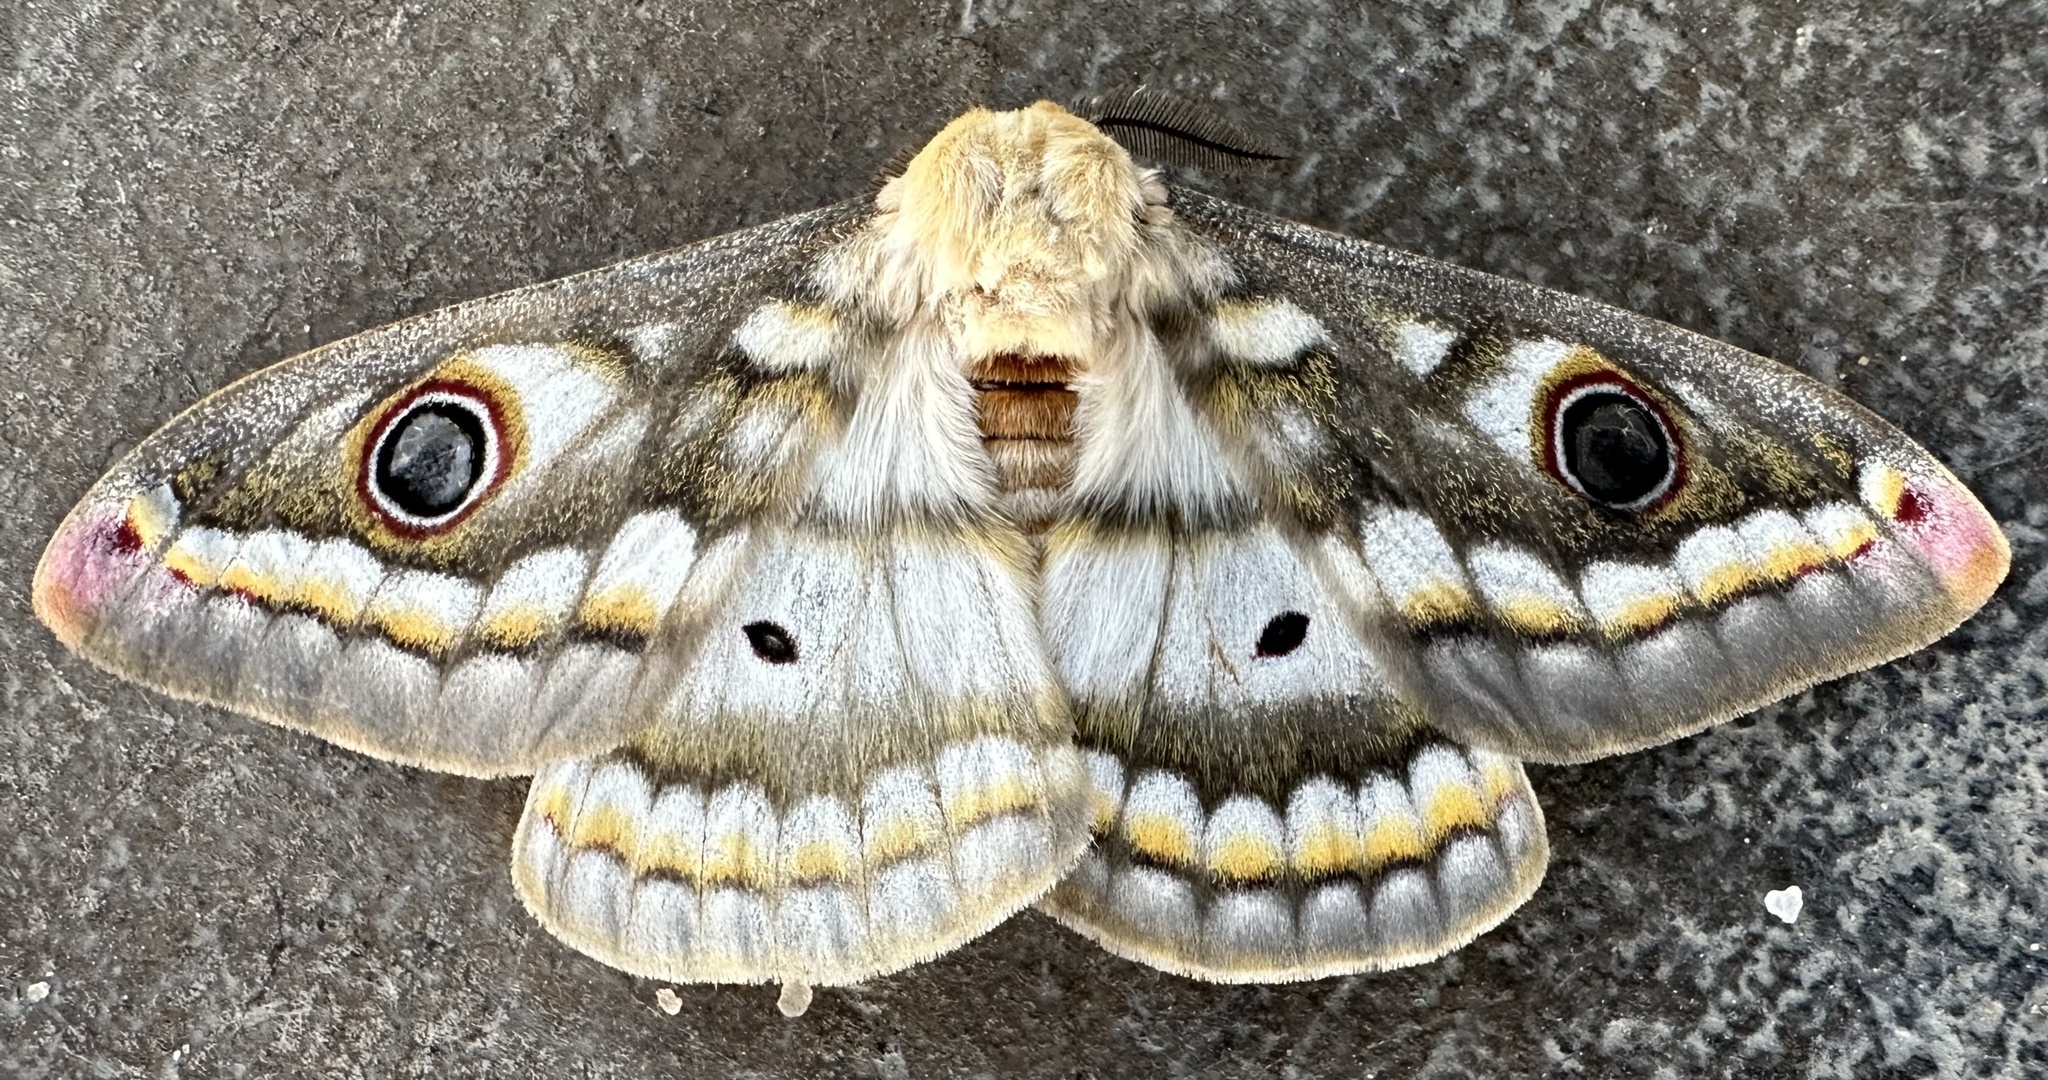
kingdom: Animalia
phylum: Arthropoda
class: Insecta
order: Lepidoptera
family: Saturniidae
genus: Heniocha
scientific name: Heniocha bioculata
